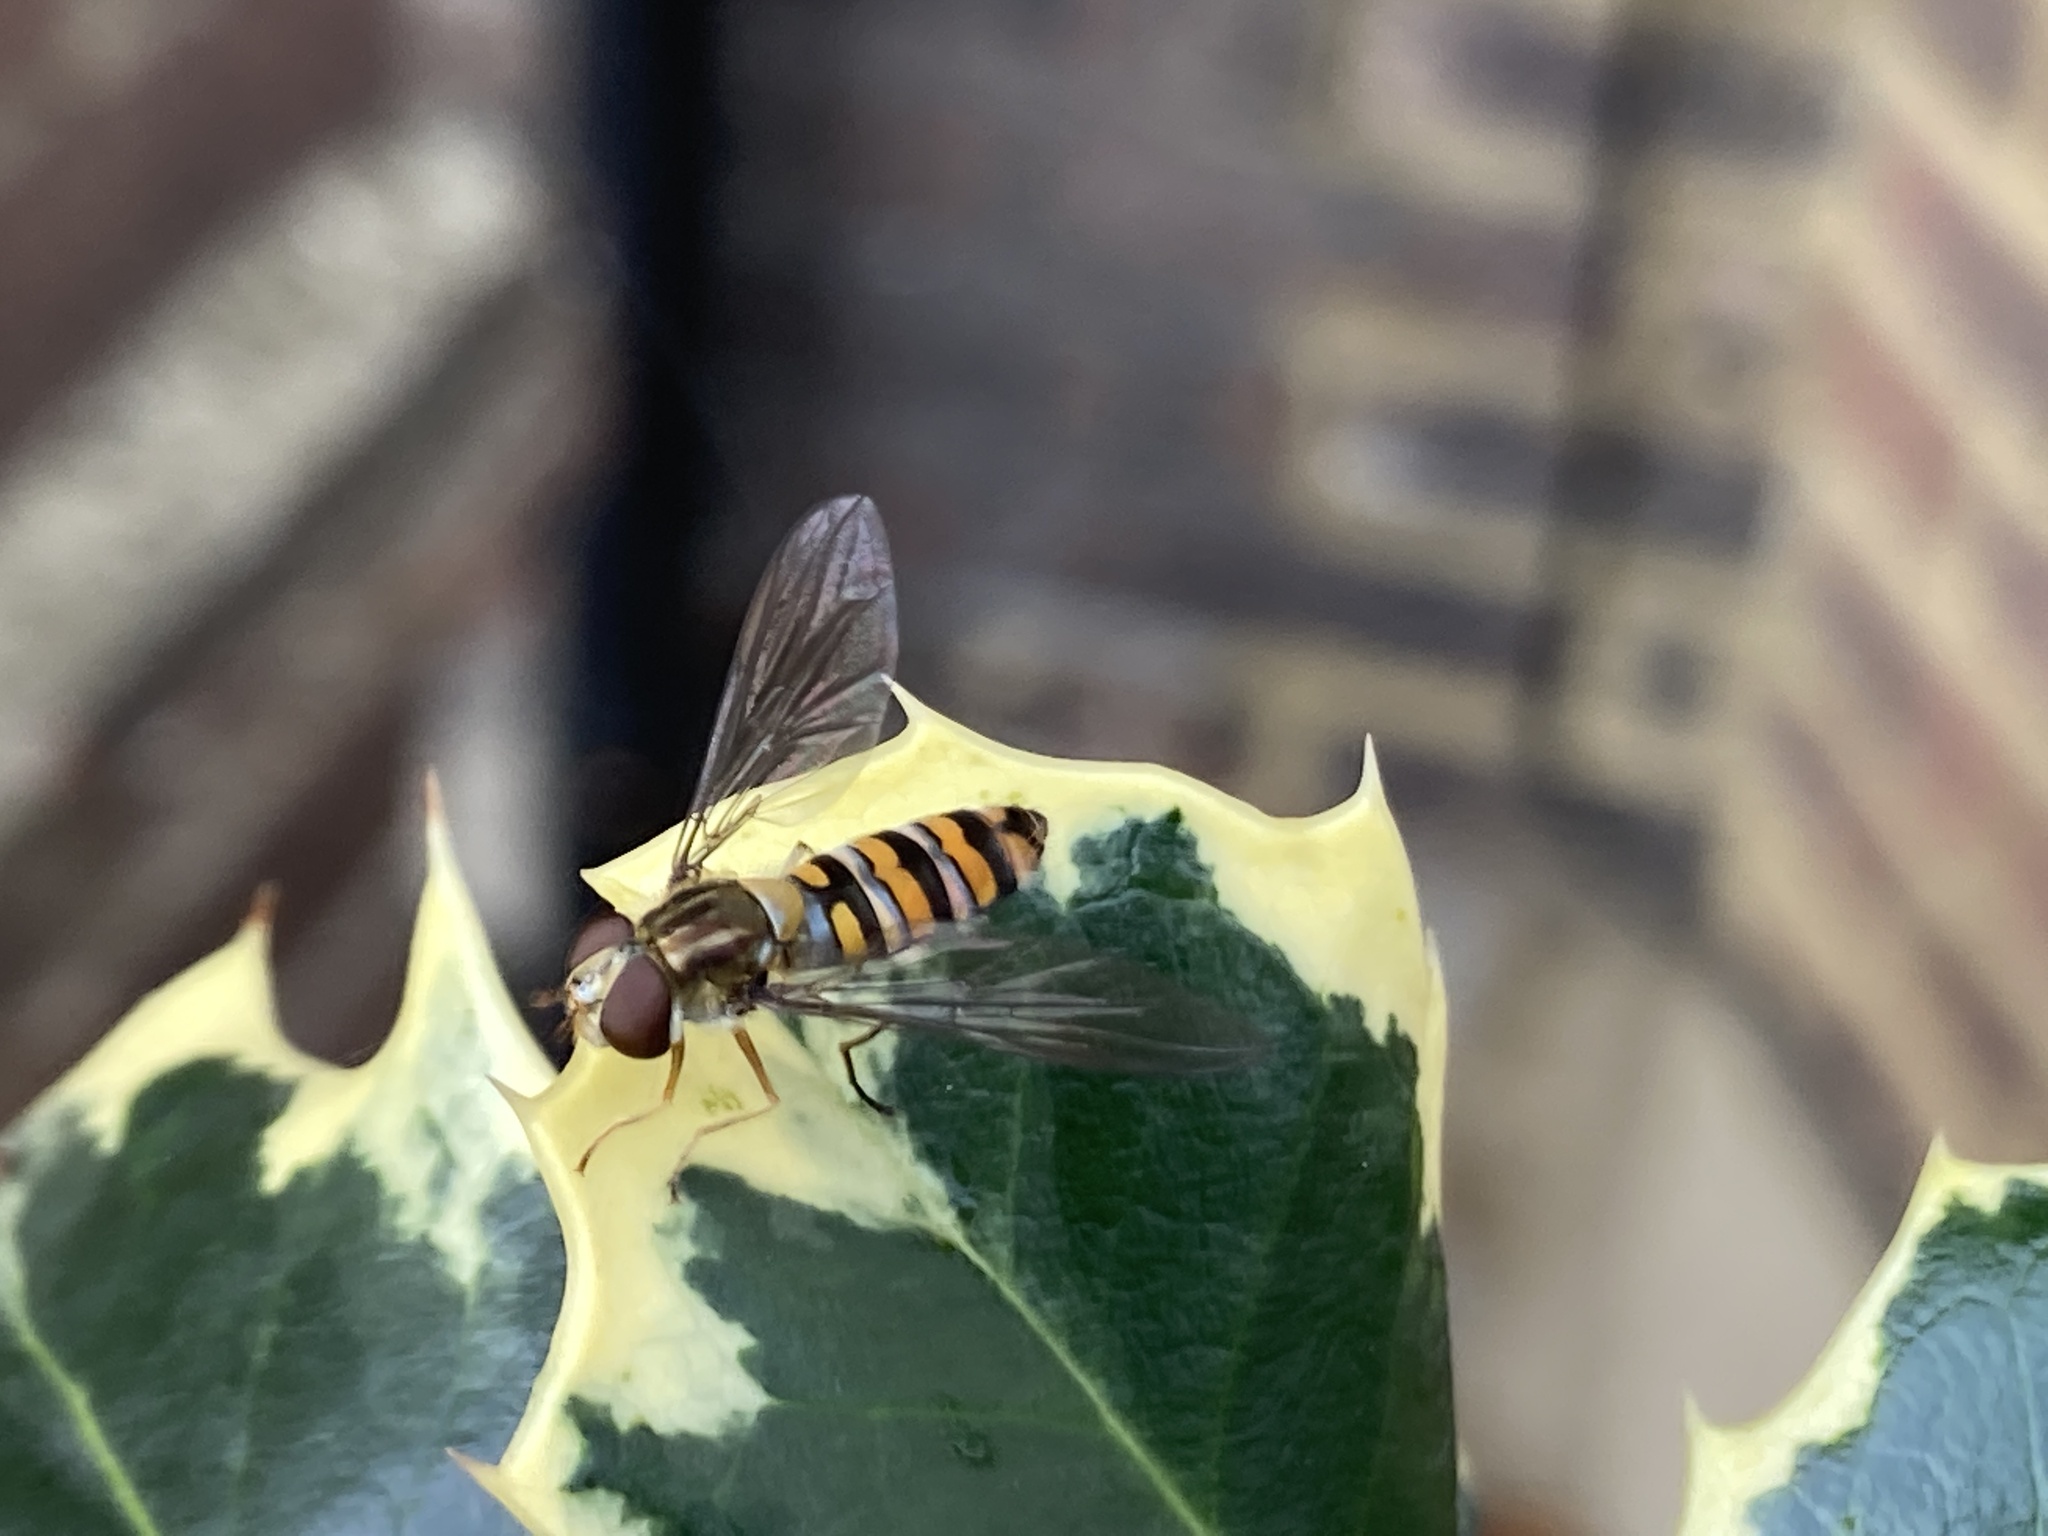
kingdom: Animalia
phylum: Arthropoda
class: Insecta
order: Diptera
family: Syrphidae
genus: Episyrphus
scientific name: Episyrphus balteatus
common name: Marmalade hoverfly
